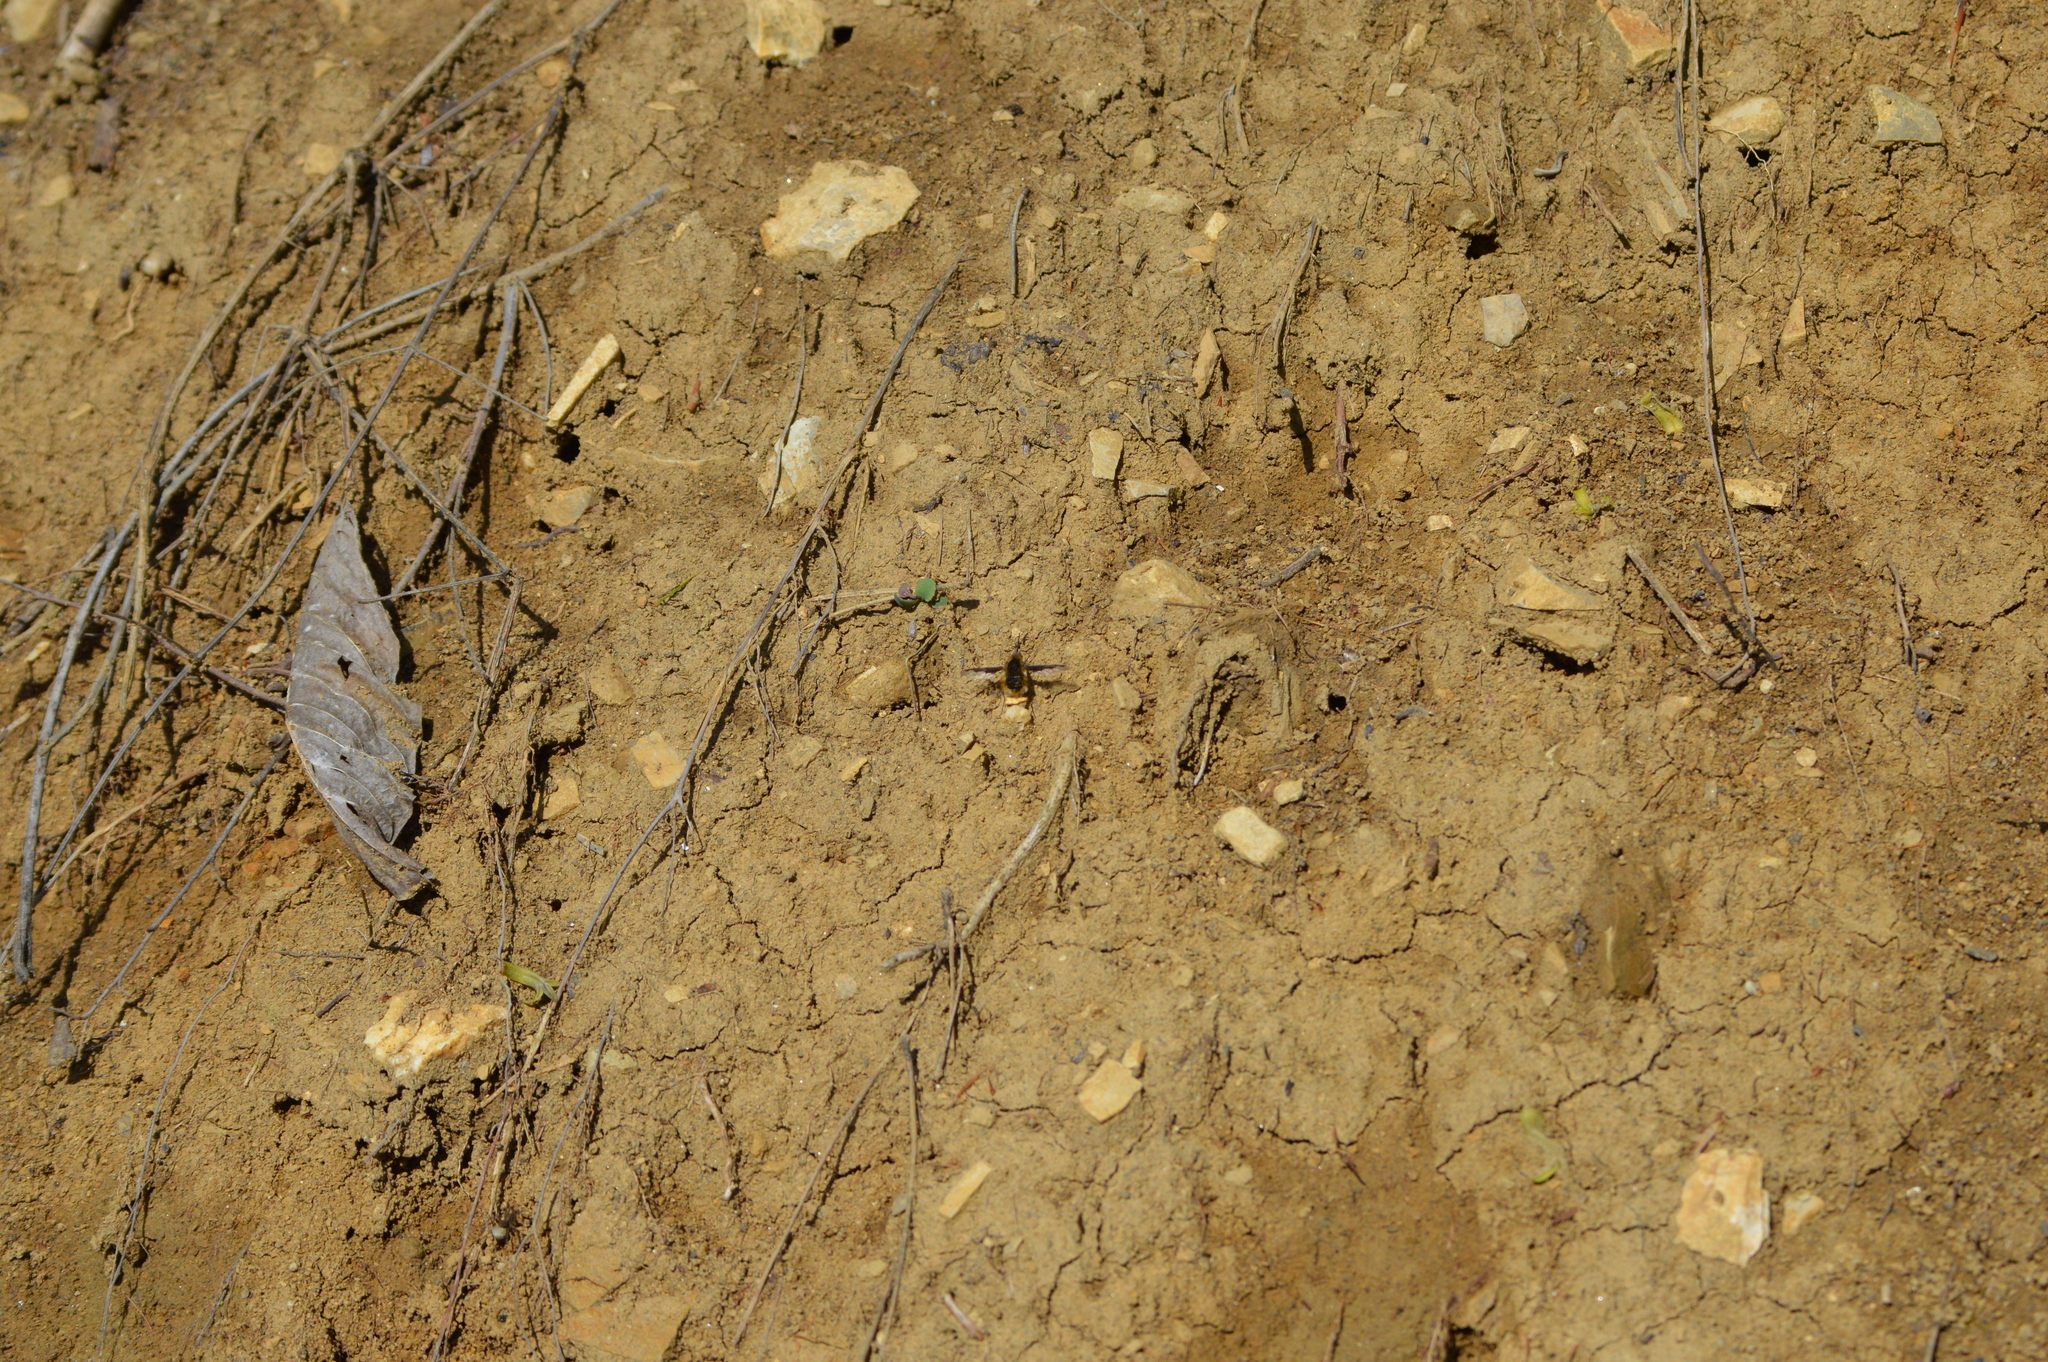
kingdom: Animalia
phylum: Arthropoda
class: Insecta
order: Diptera
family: Bombyliidae
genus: Bombylius
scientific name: Bombylius major
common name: Bee fly
